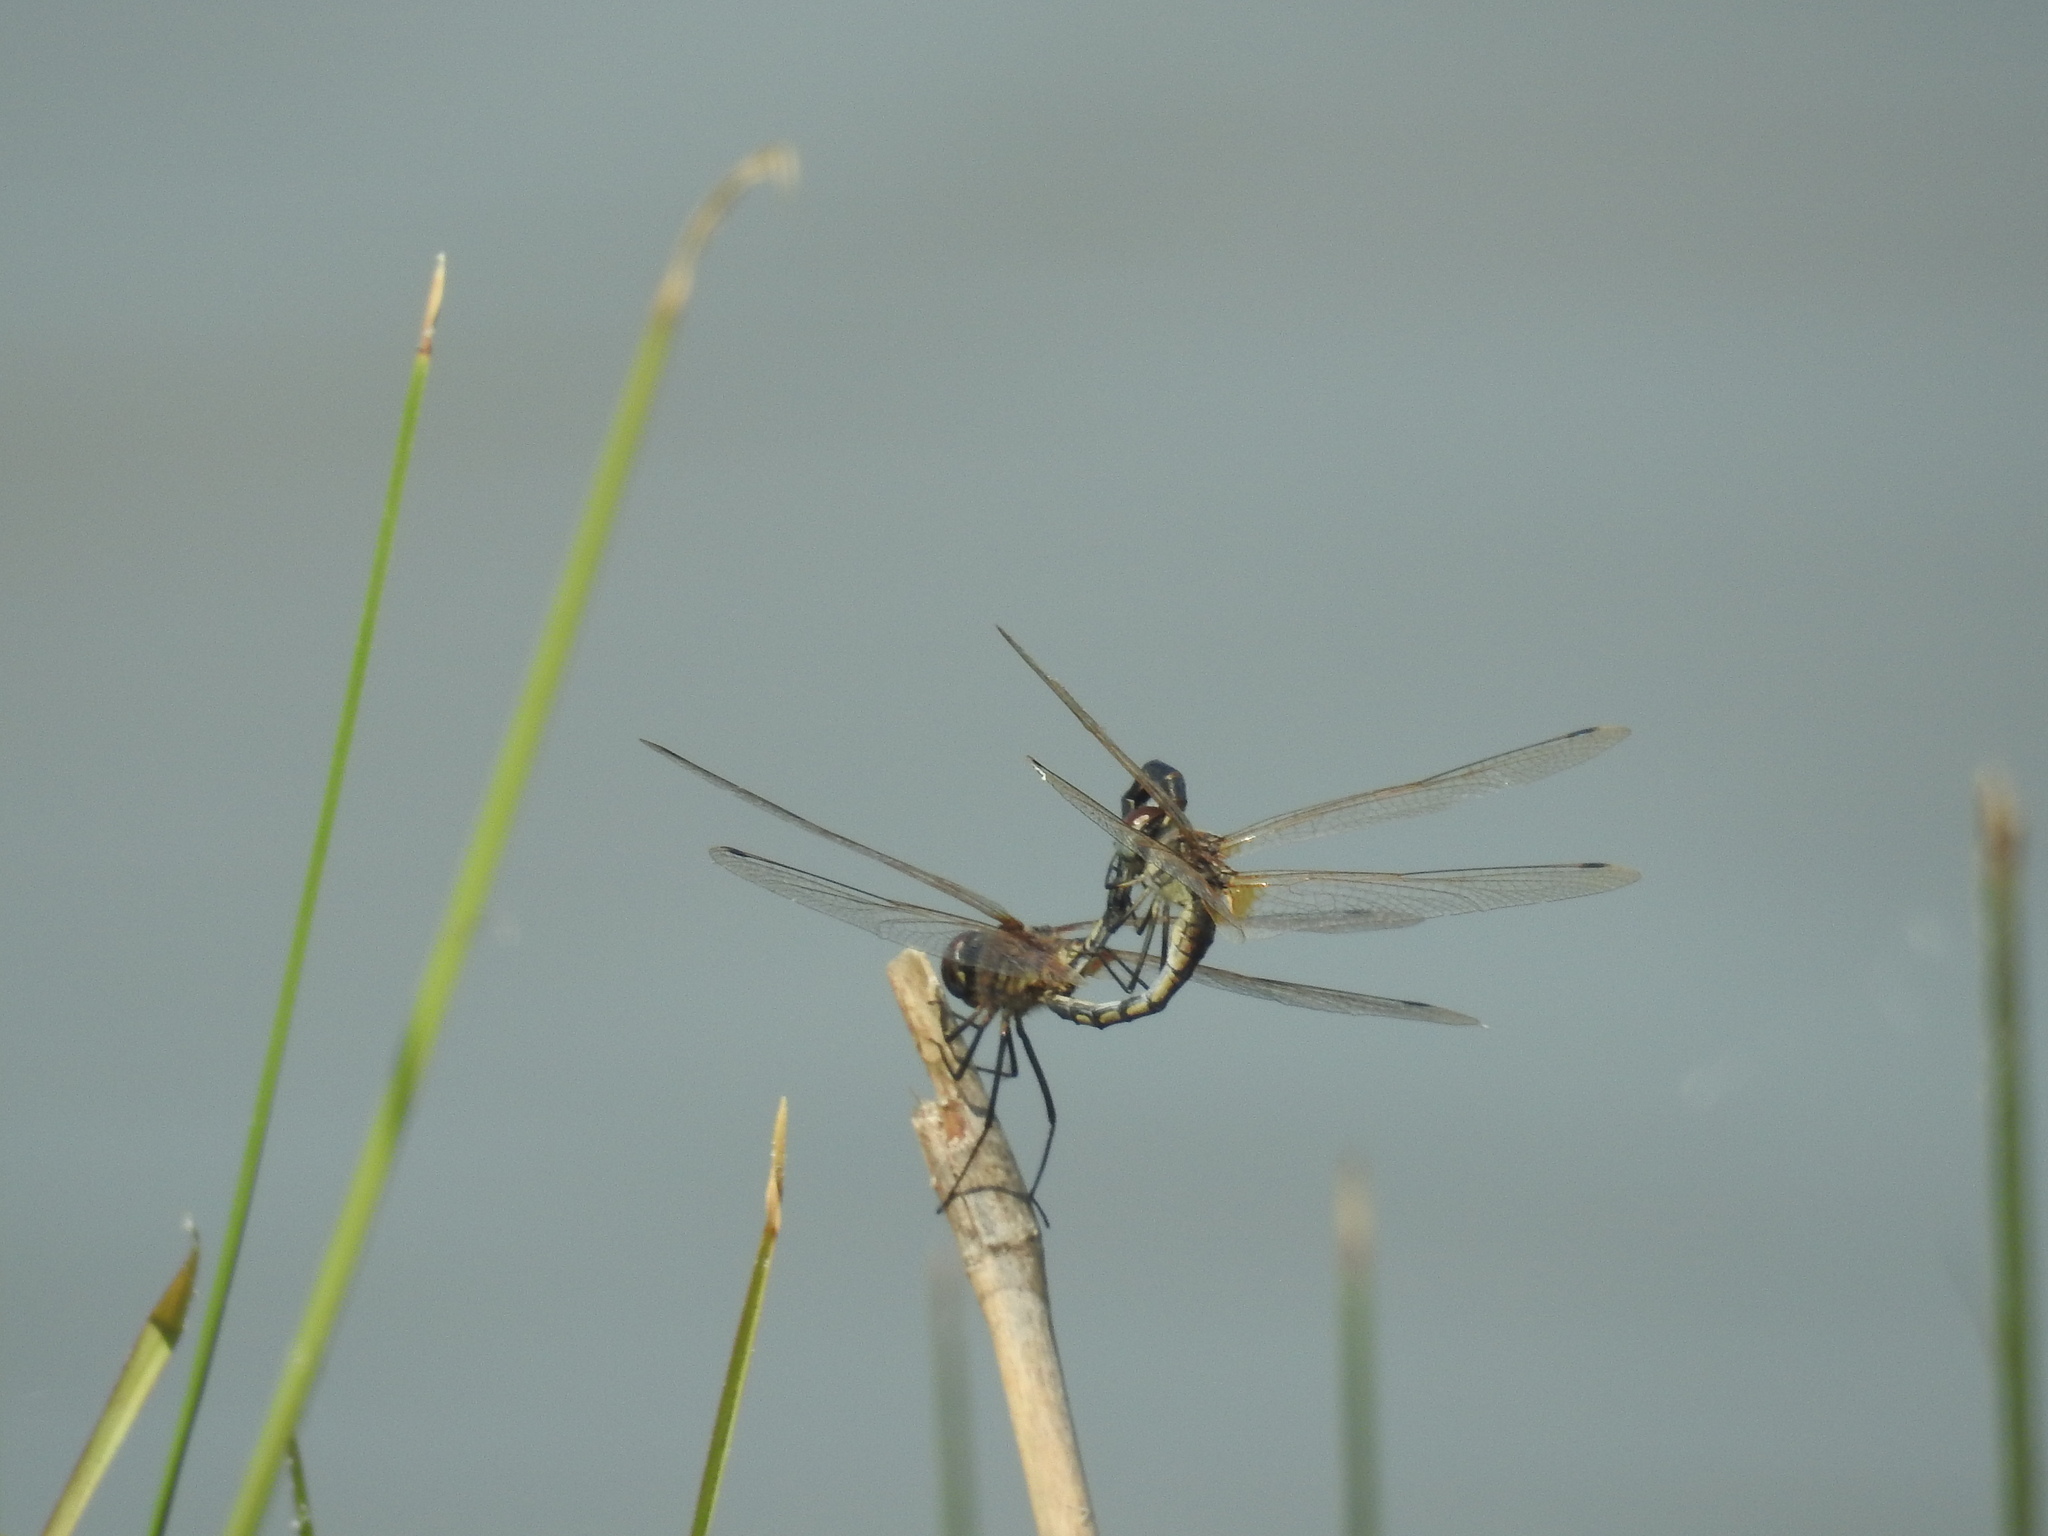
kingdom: Animalia
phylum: Arthropoda
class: Insecta
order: Odonata
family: Libellulidae
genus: Trithemis
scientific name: Trithemis pallidinervis
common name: Dancing dropwing
